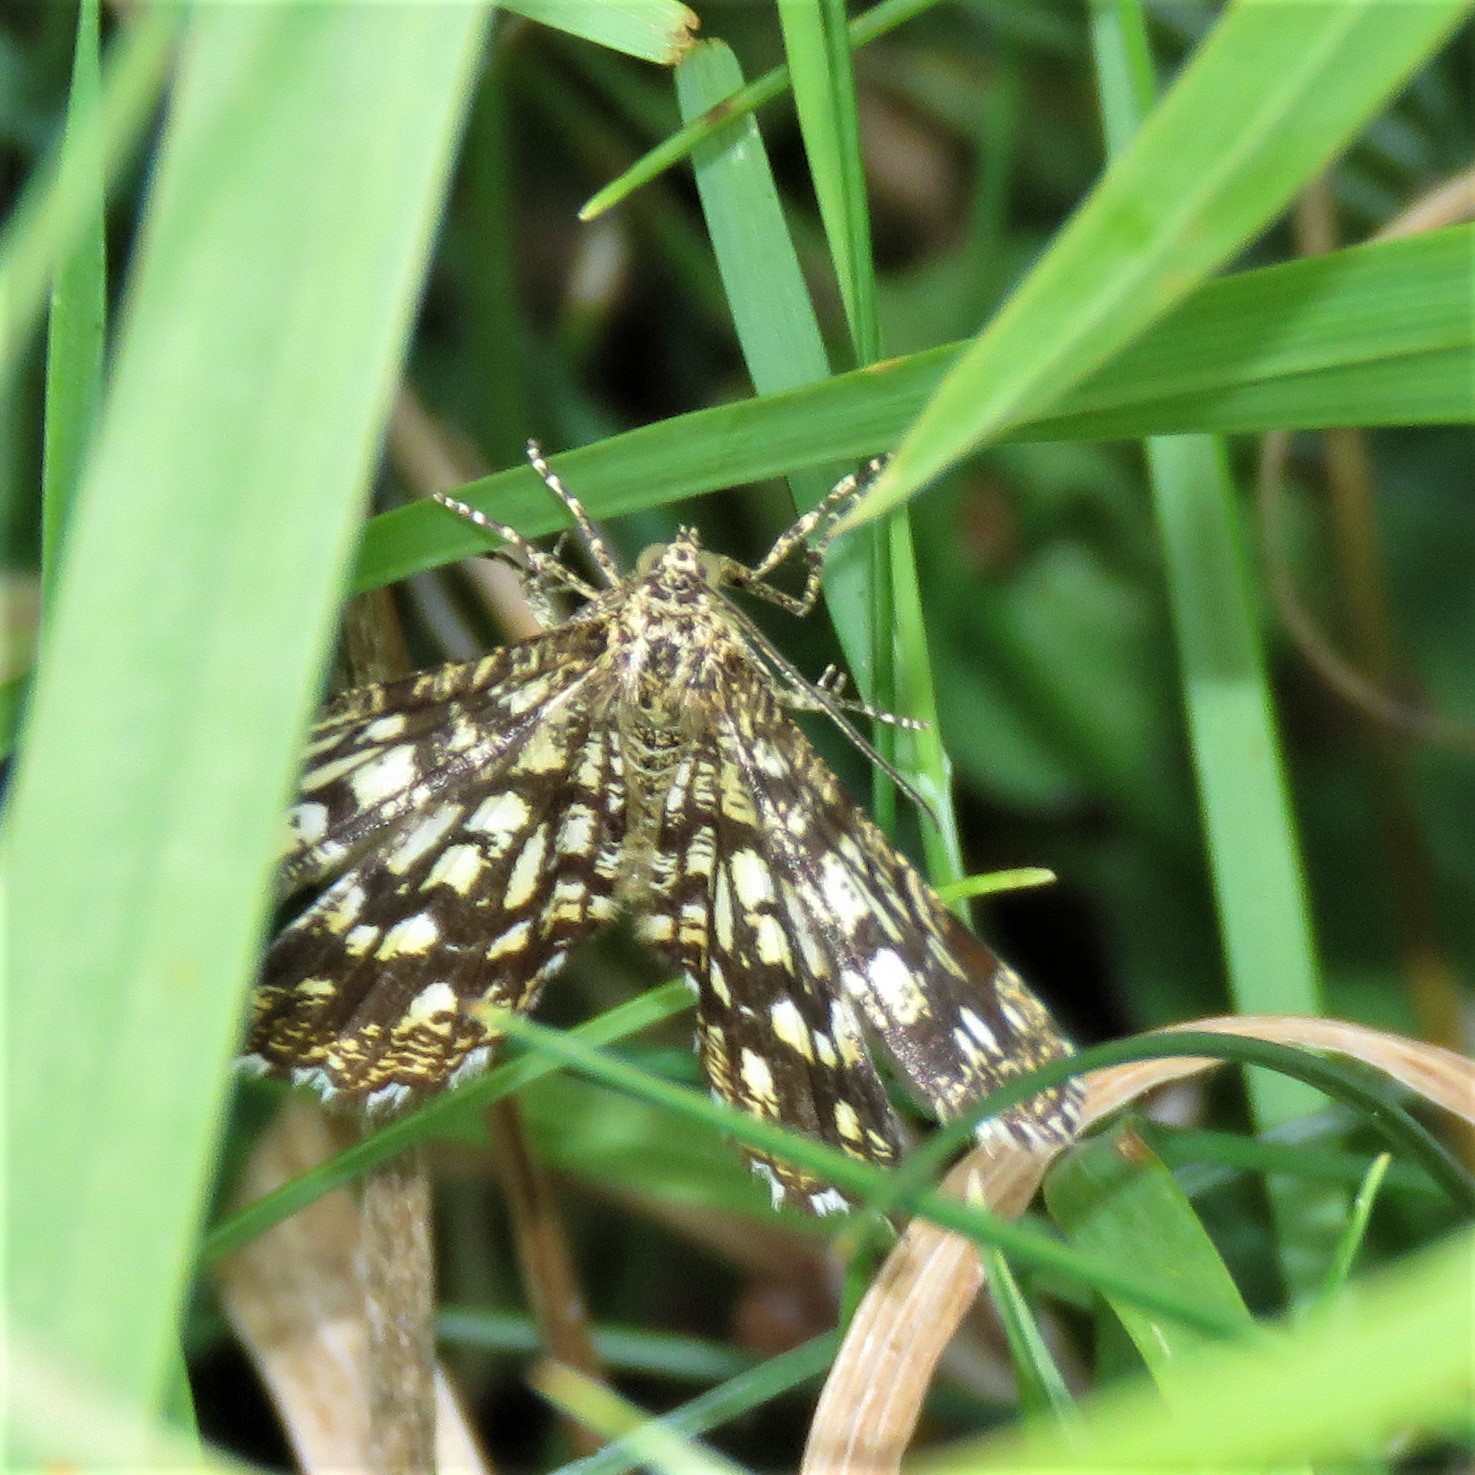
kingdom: Animalia
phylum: Arthropoda
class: Insecta
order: Lepidoptera
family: Geometridae
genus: Chiasmia
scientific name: Chiasmia clathrata
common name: Latticed heath
